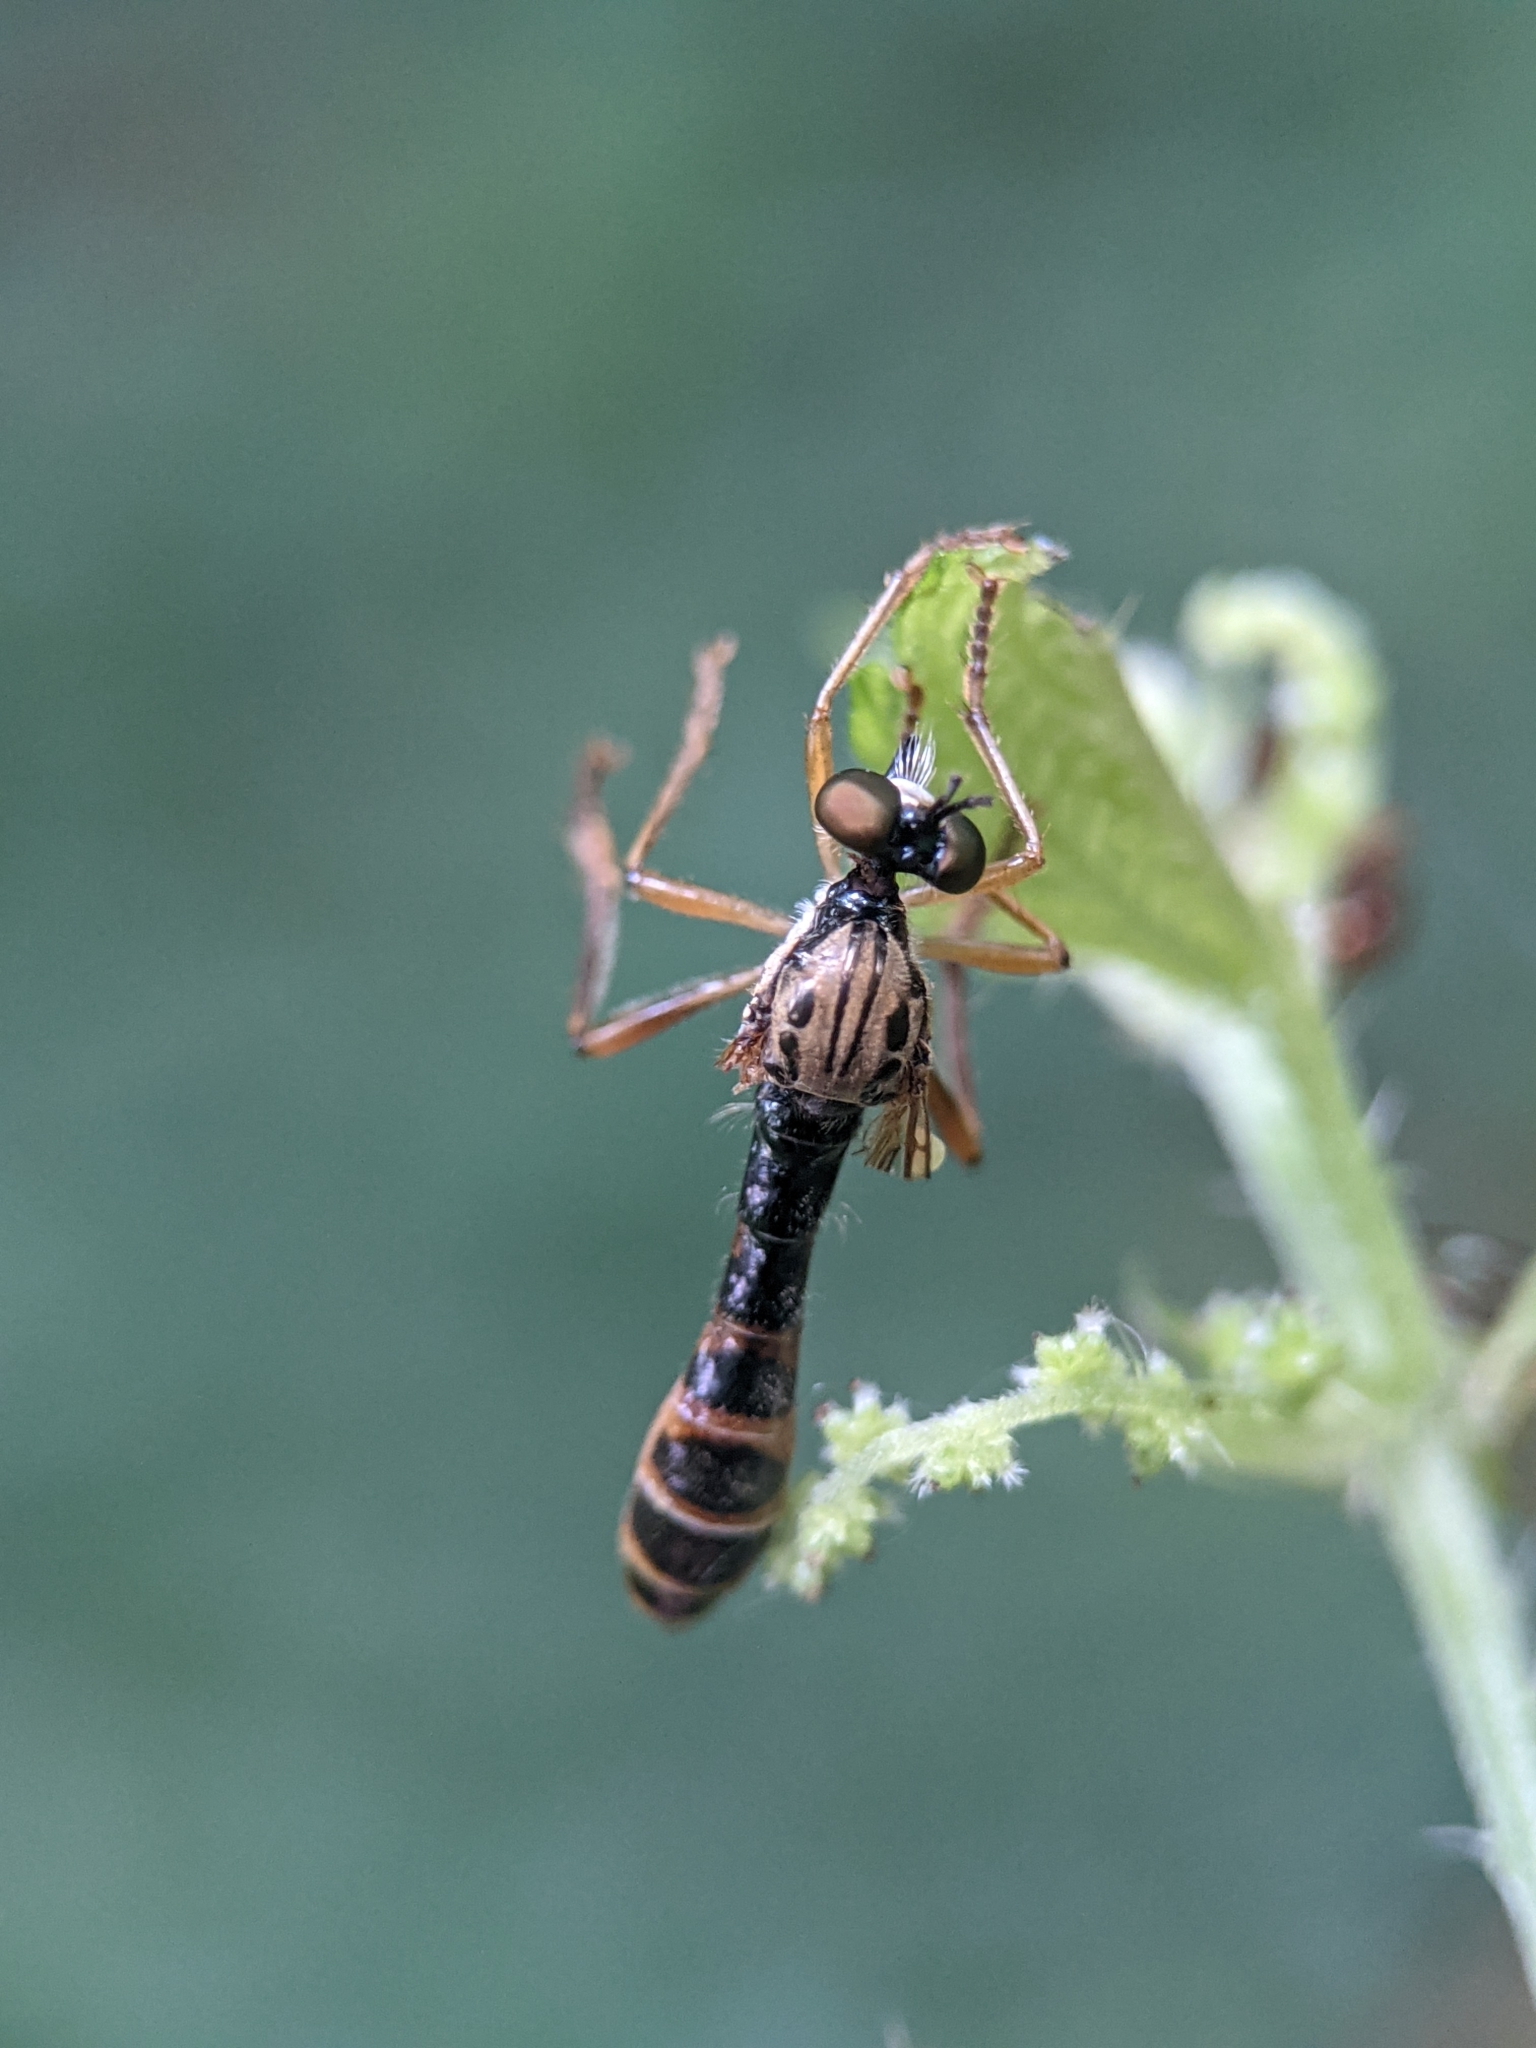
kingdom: Animalia
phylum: Arthropoda
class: Insecta
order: Diptera
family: Asilidae
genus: Dioctria
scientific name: Dioctria linearis
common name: Small yellow-legged robberfly
